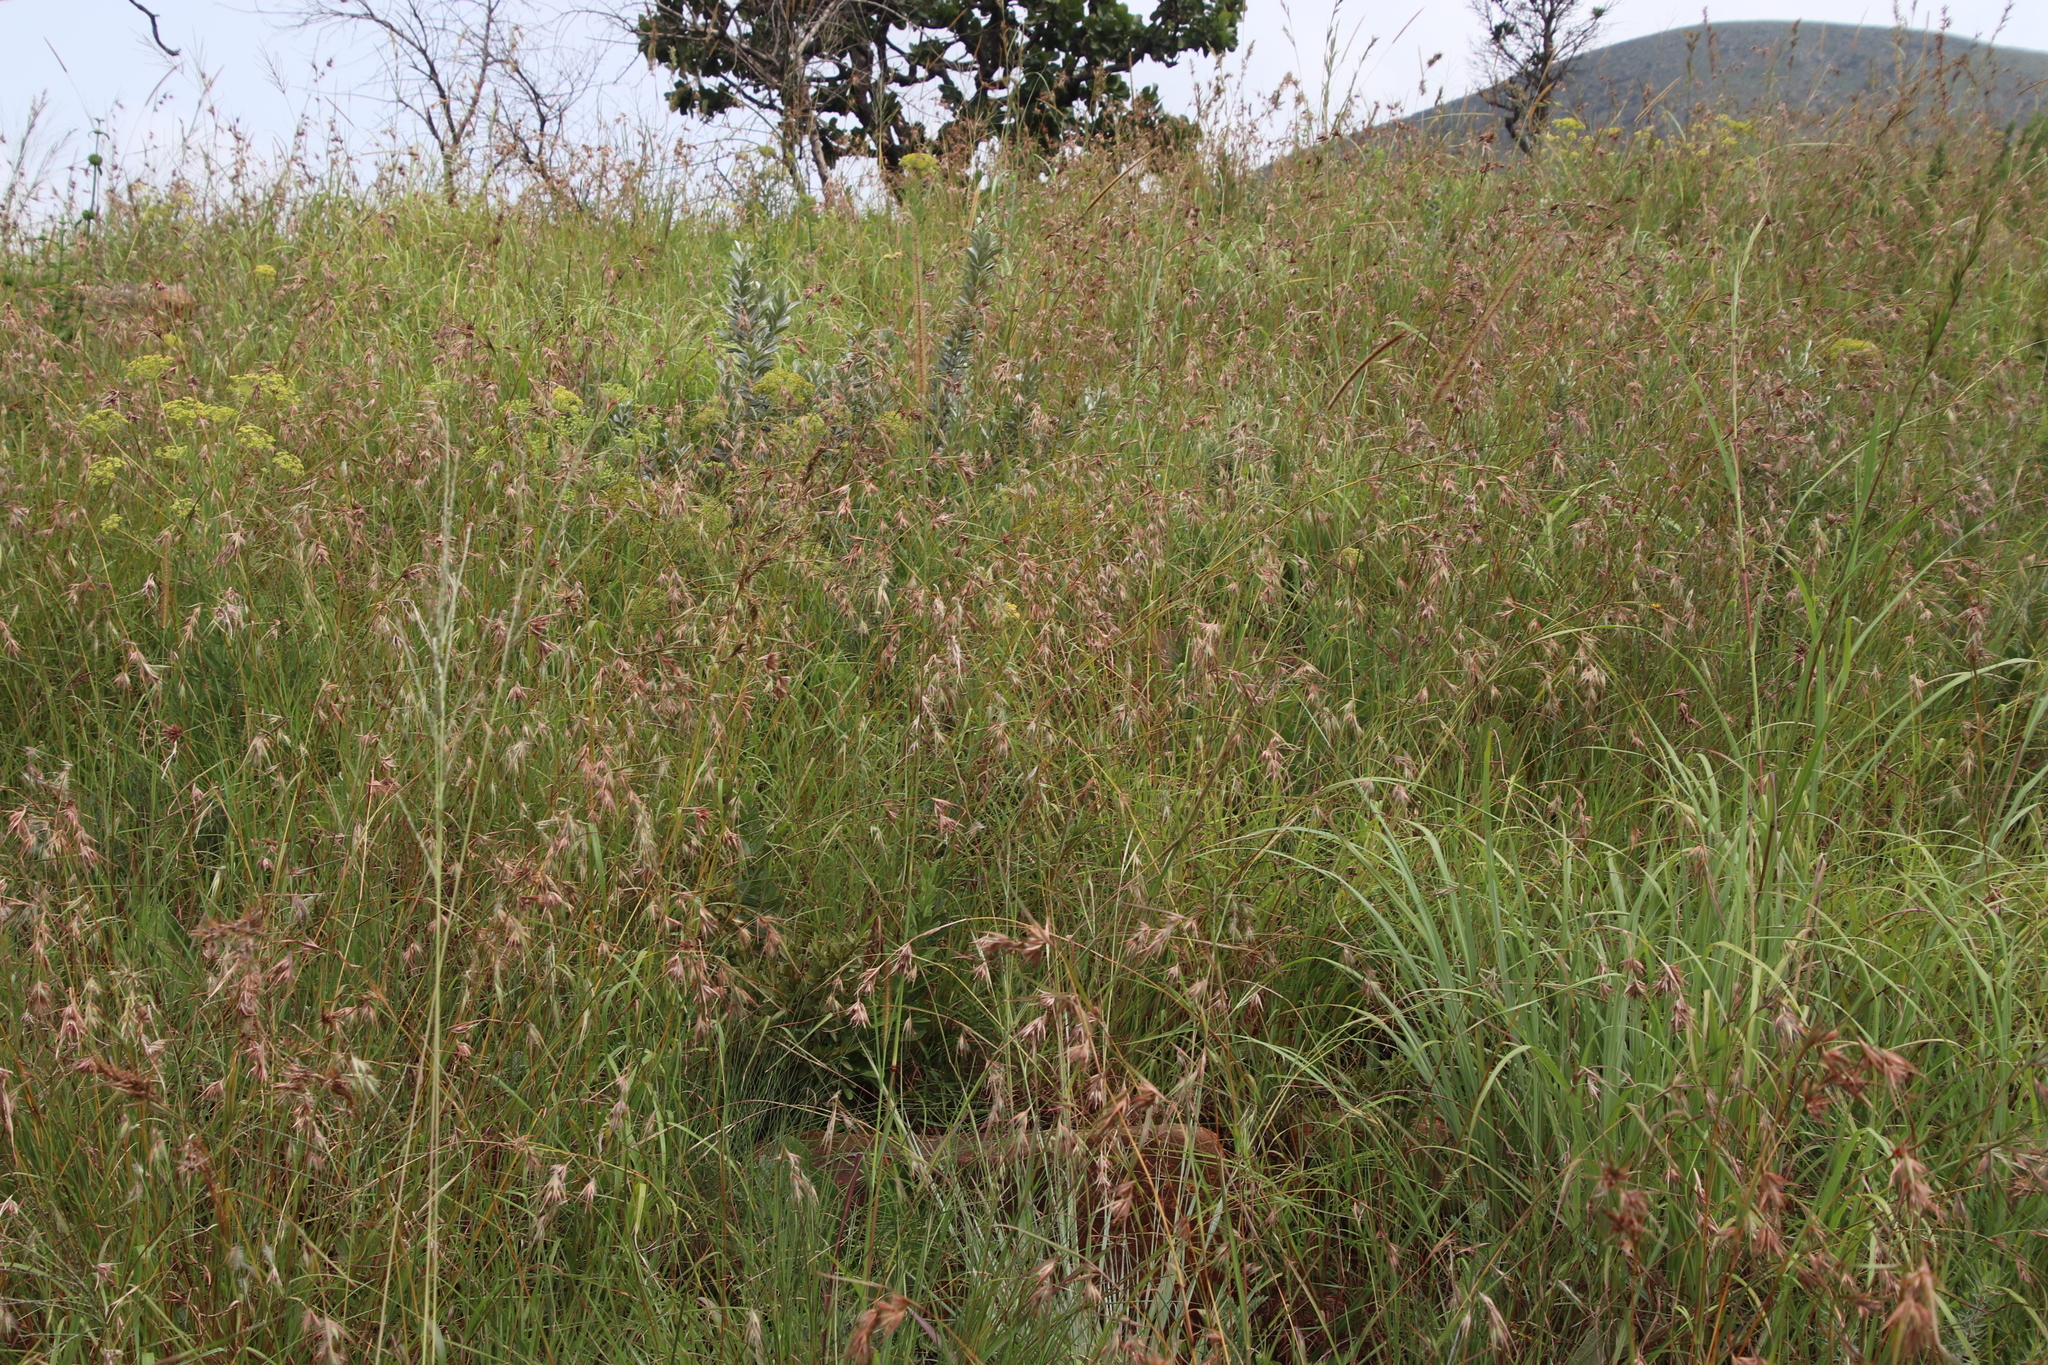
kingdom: Plantae
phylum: Tracheophyta
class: Liliopsida
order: Poales
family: Poaceae
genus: Themeda
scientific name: Themeda triandra
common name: Kangaroo grass
